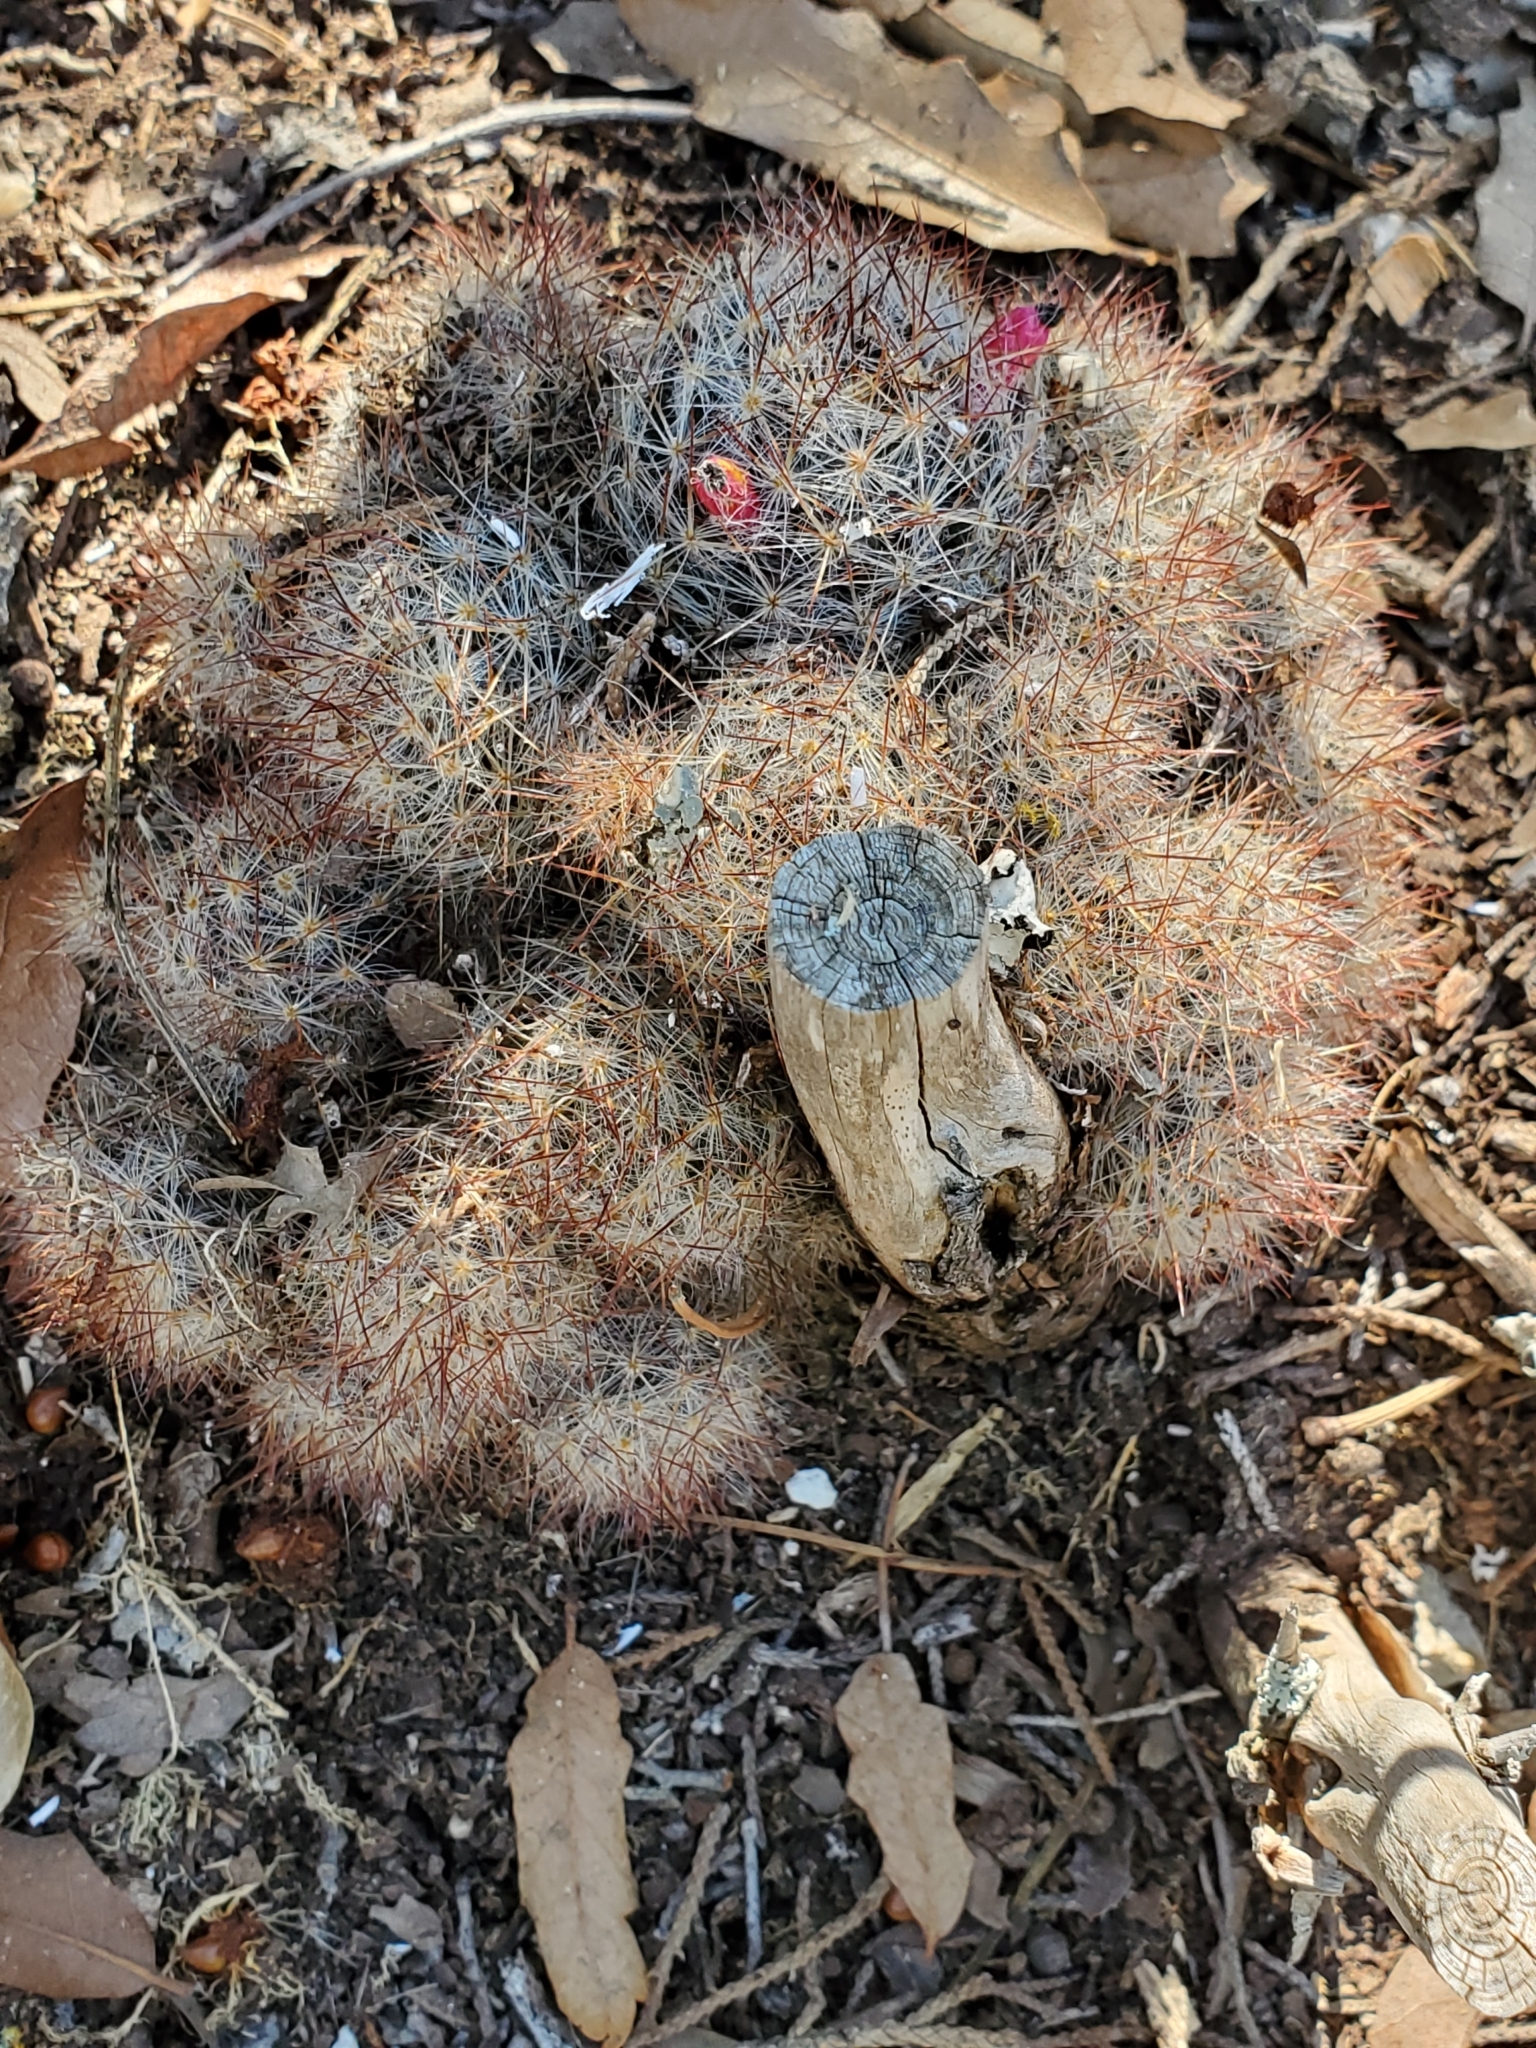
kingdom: Plantae
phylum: Tracheophyta
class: Magnoliopsida
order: Caryophyllales
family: Cactaceae
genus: Mammillaria
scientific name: Mammillaria prolifera
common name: Texas nipple cactus
